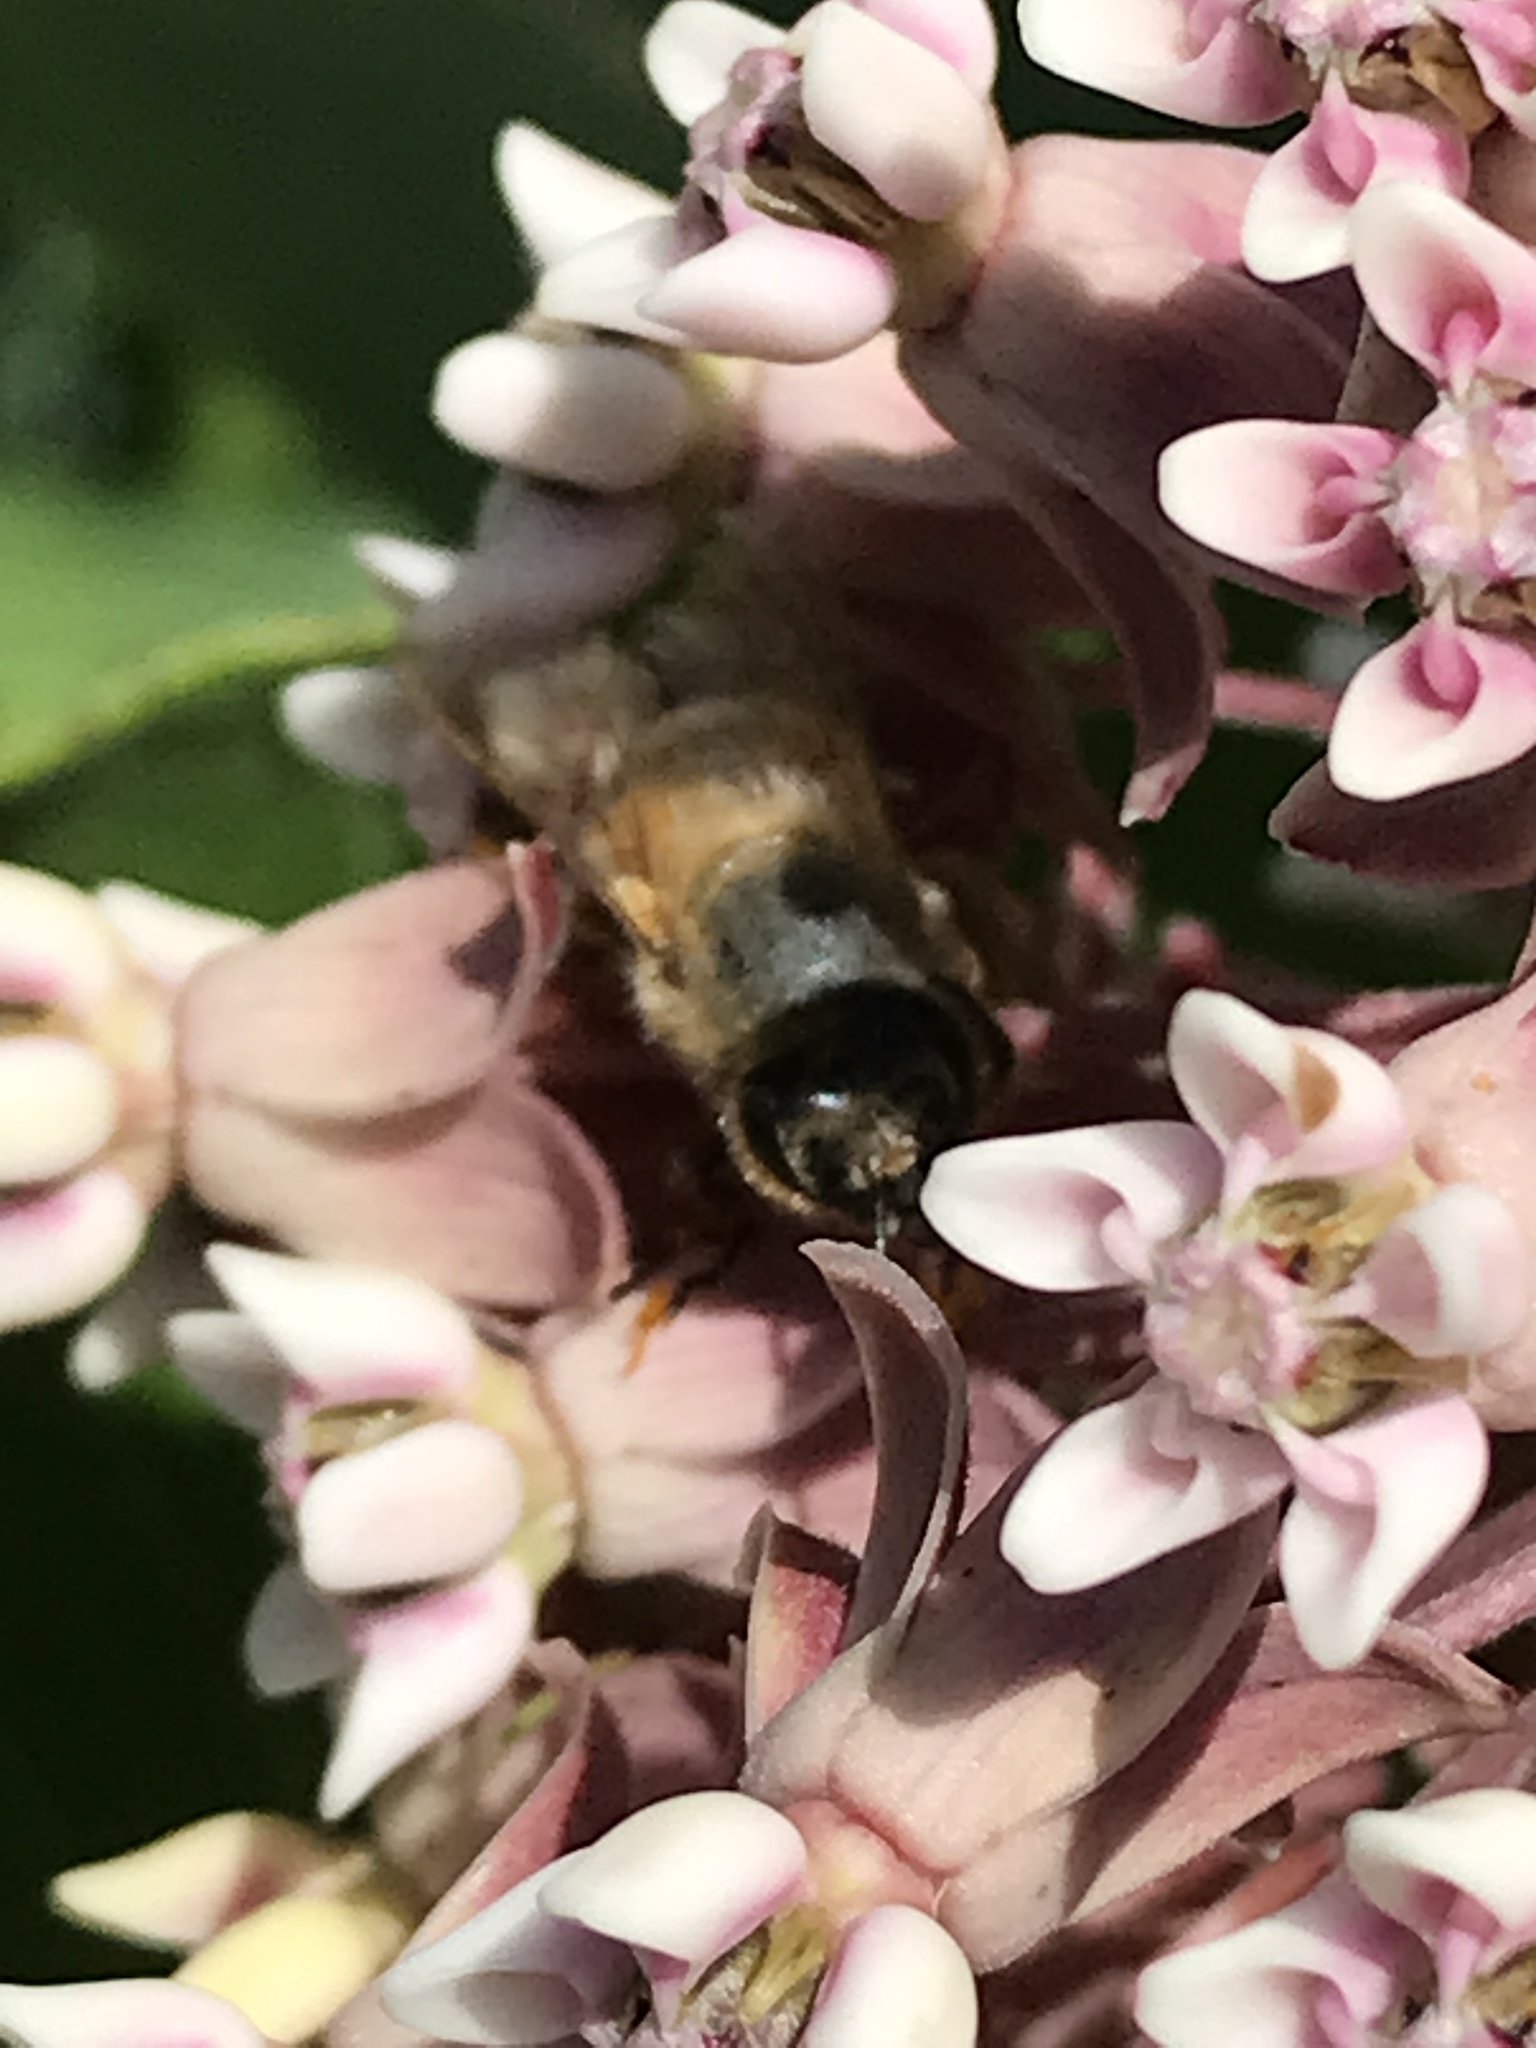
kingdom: Animalia
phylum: Arthropoda
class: Insecta
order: Hymenoptera
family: Apidae
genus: Apis
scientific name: Apis mellifera
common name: Honey bee
